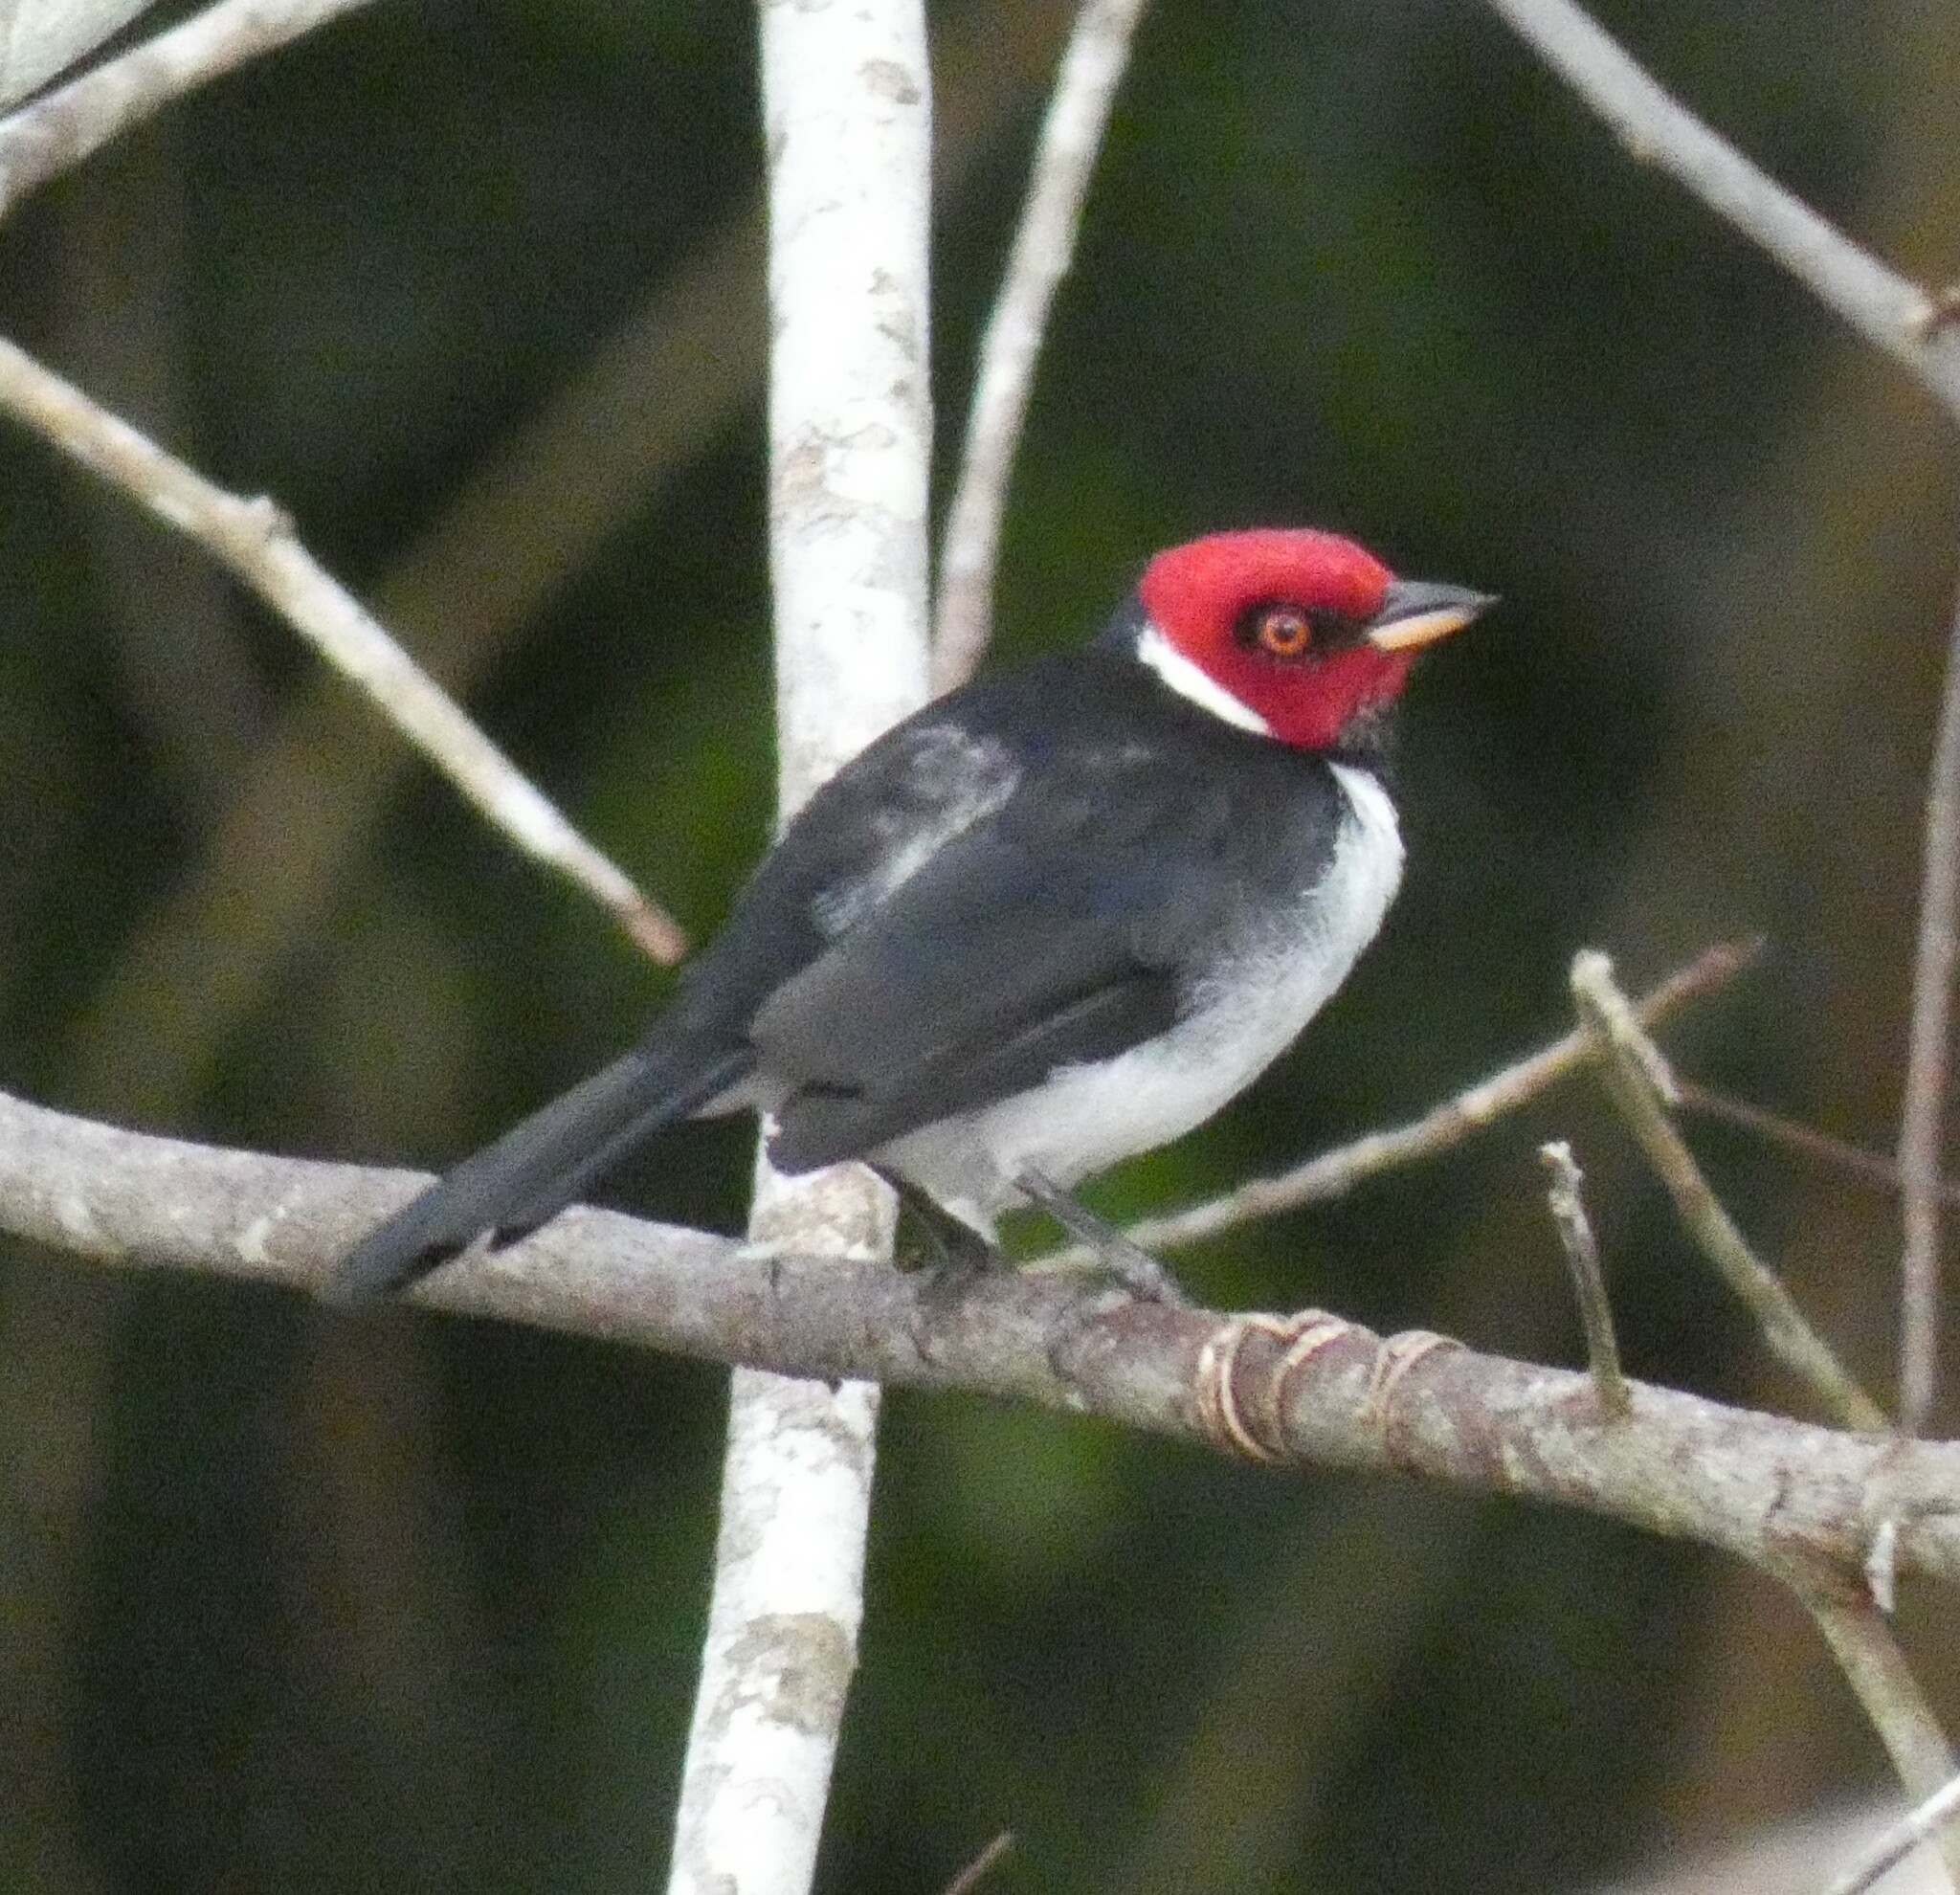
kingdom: Animalia
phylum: Chordata
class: Aves
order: Passeriformes
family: Thraupidae
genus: Paroaria
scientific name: Paroaria gularis
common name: Red-capped cardinal
